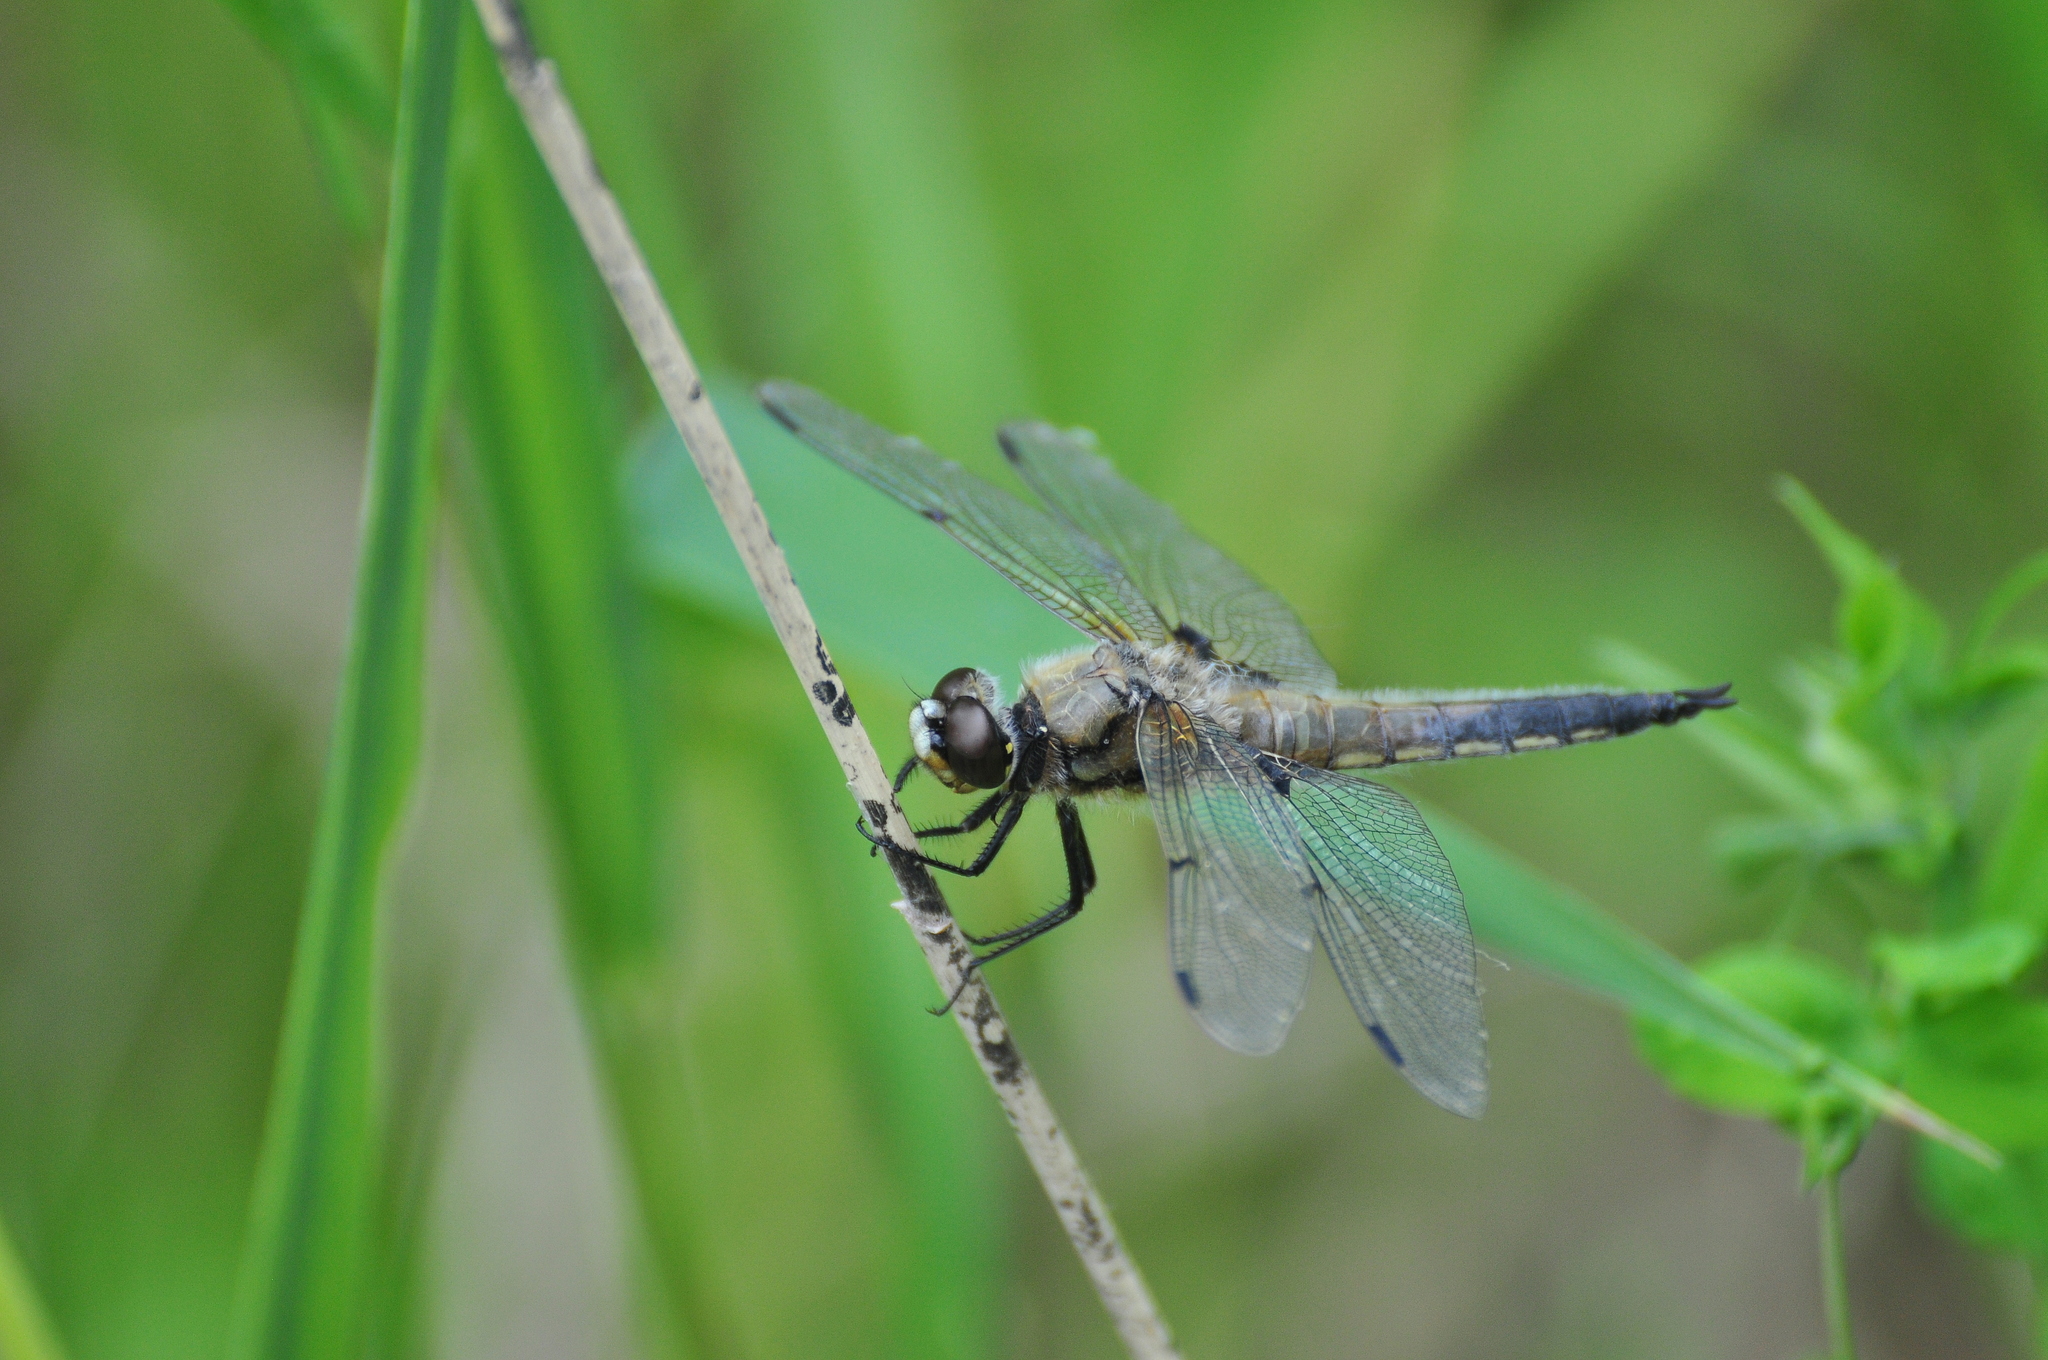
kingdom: Animalia
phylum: Arthropoda
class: Insecta
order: Odonata
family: Libellulidae
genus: Libellula
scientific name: Libellula quadrimaculata
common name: Four-spotted chaser
